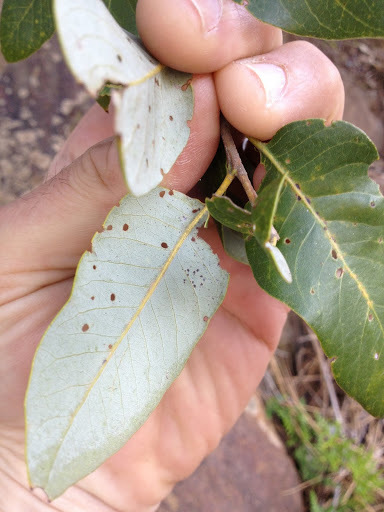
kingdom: Plantae
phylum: Tracheophyta
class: Magnoliopsida
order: Fagales
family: Fagaceae
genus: Quercus
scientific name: Quercus chrysolepis
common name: Canyon live oak
